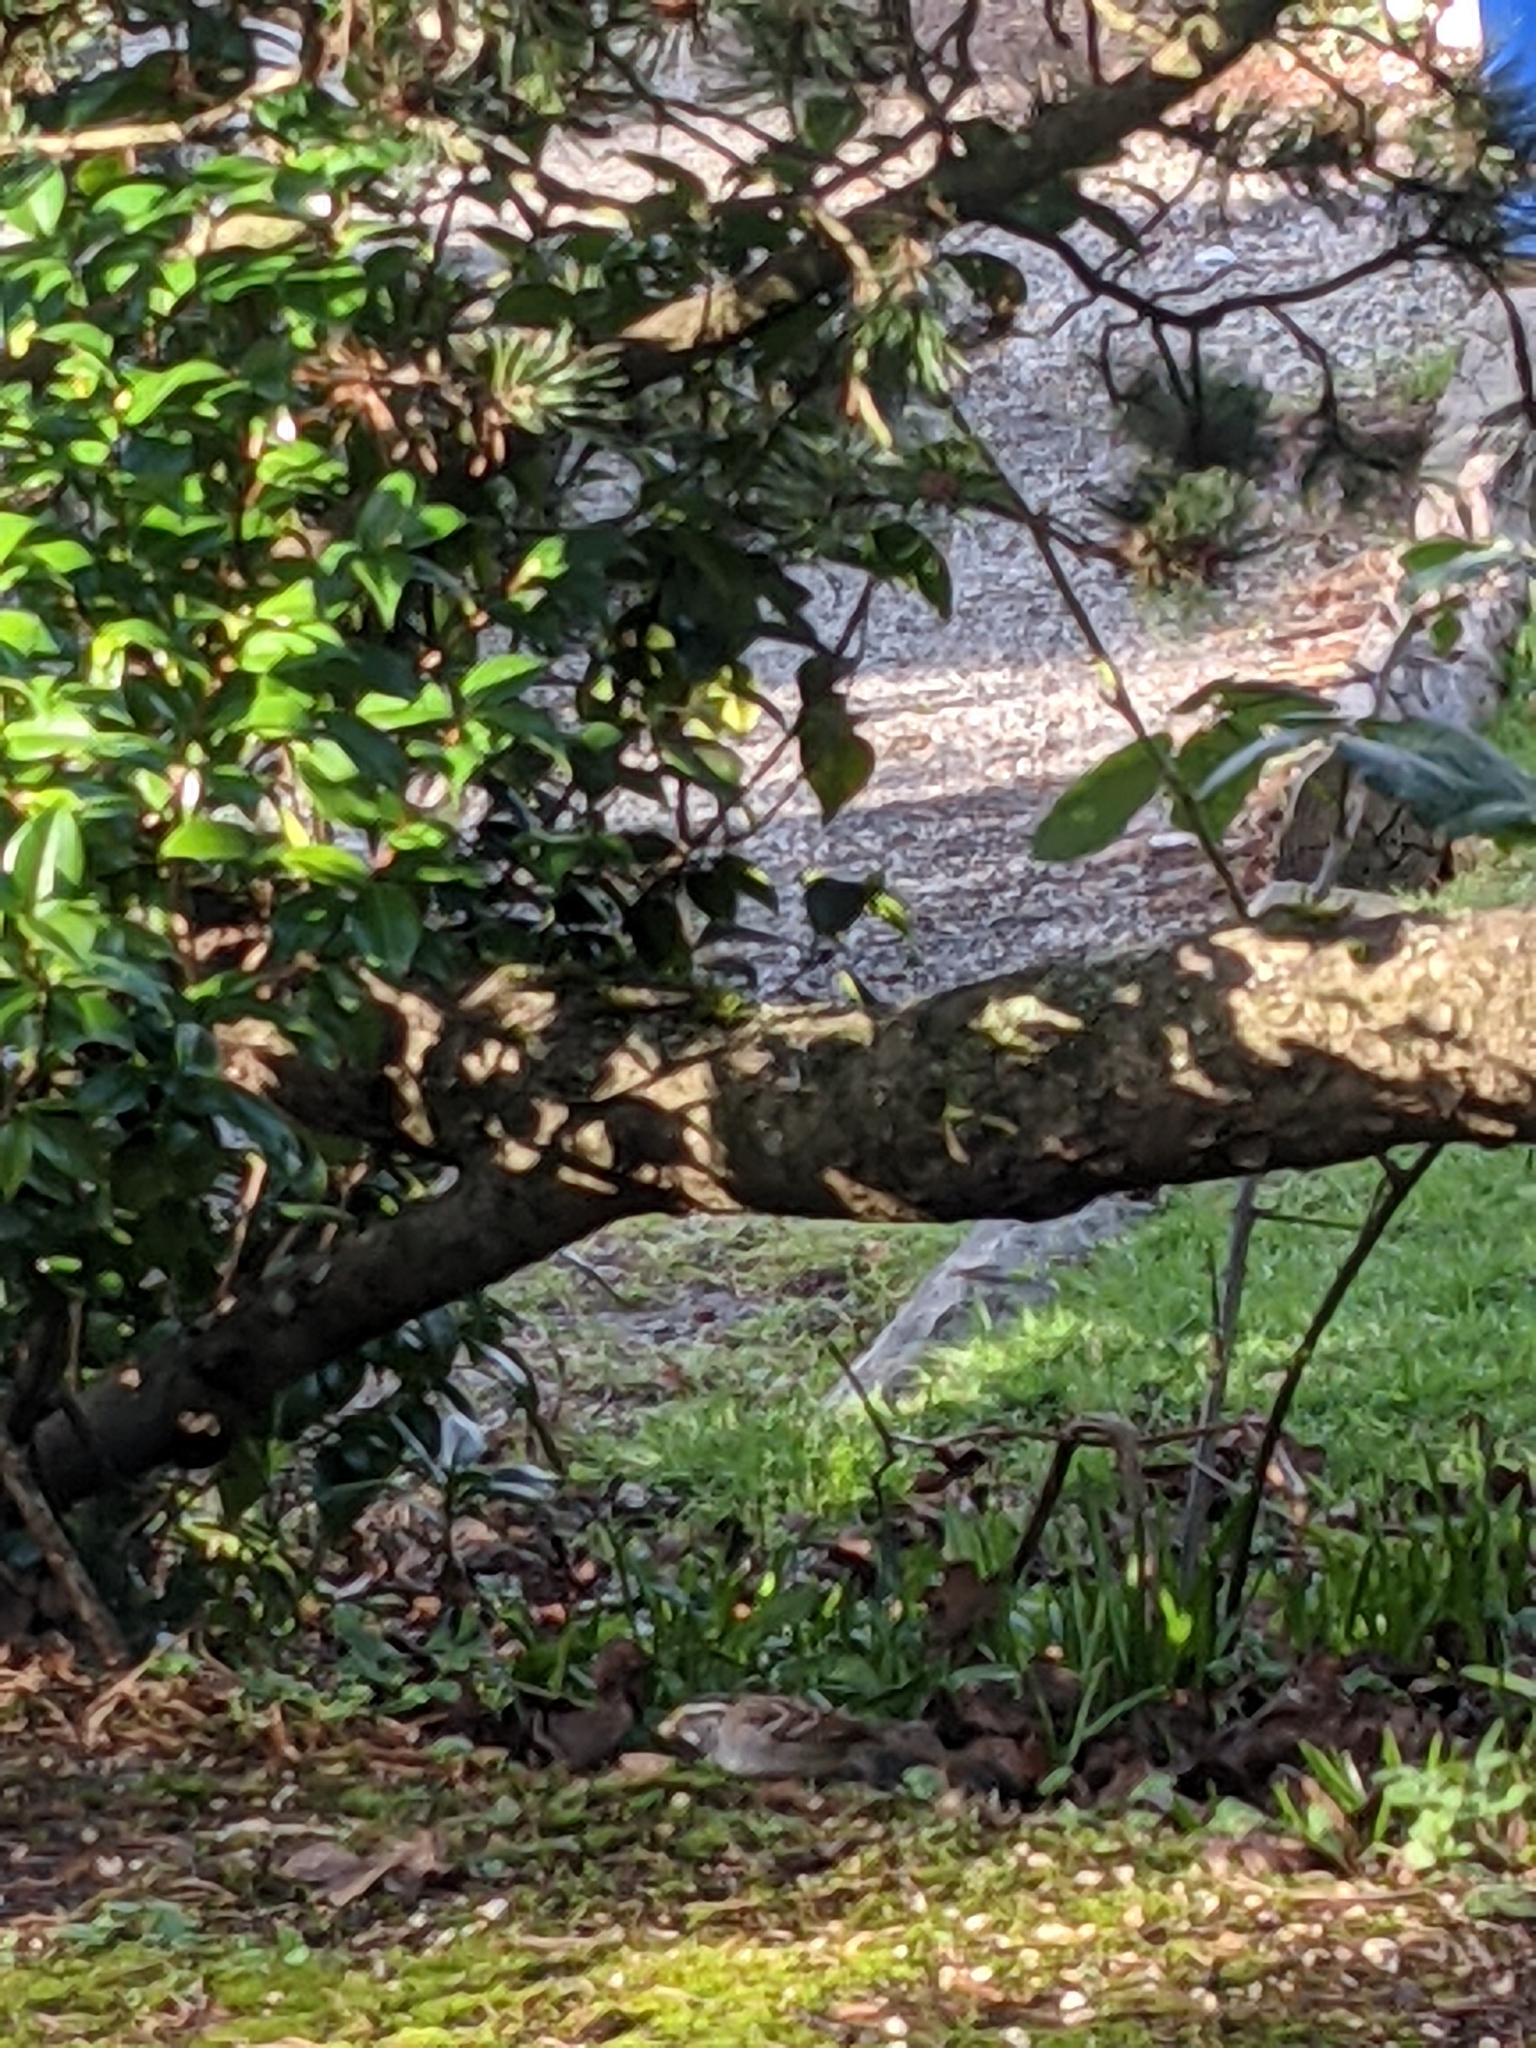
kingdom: Animalia
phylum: Chordata
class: Aves
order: Passeriformes
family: Passerellidae
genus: Zonotrichia
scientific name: Zonotrichia albicollis
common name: White-throated sparrow
